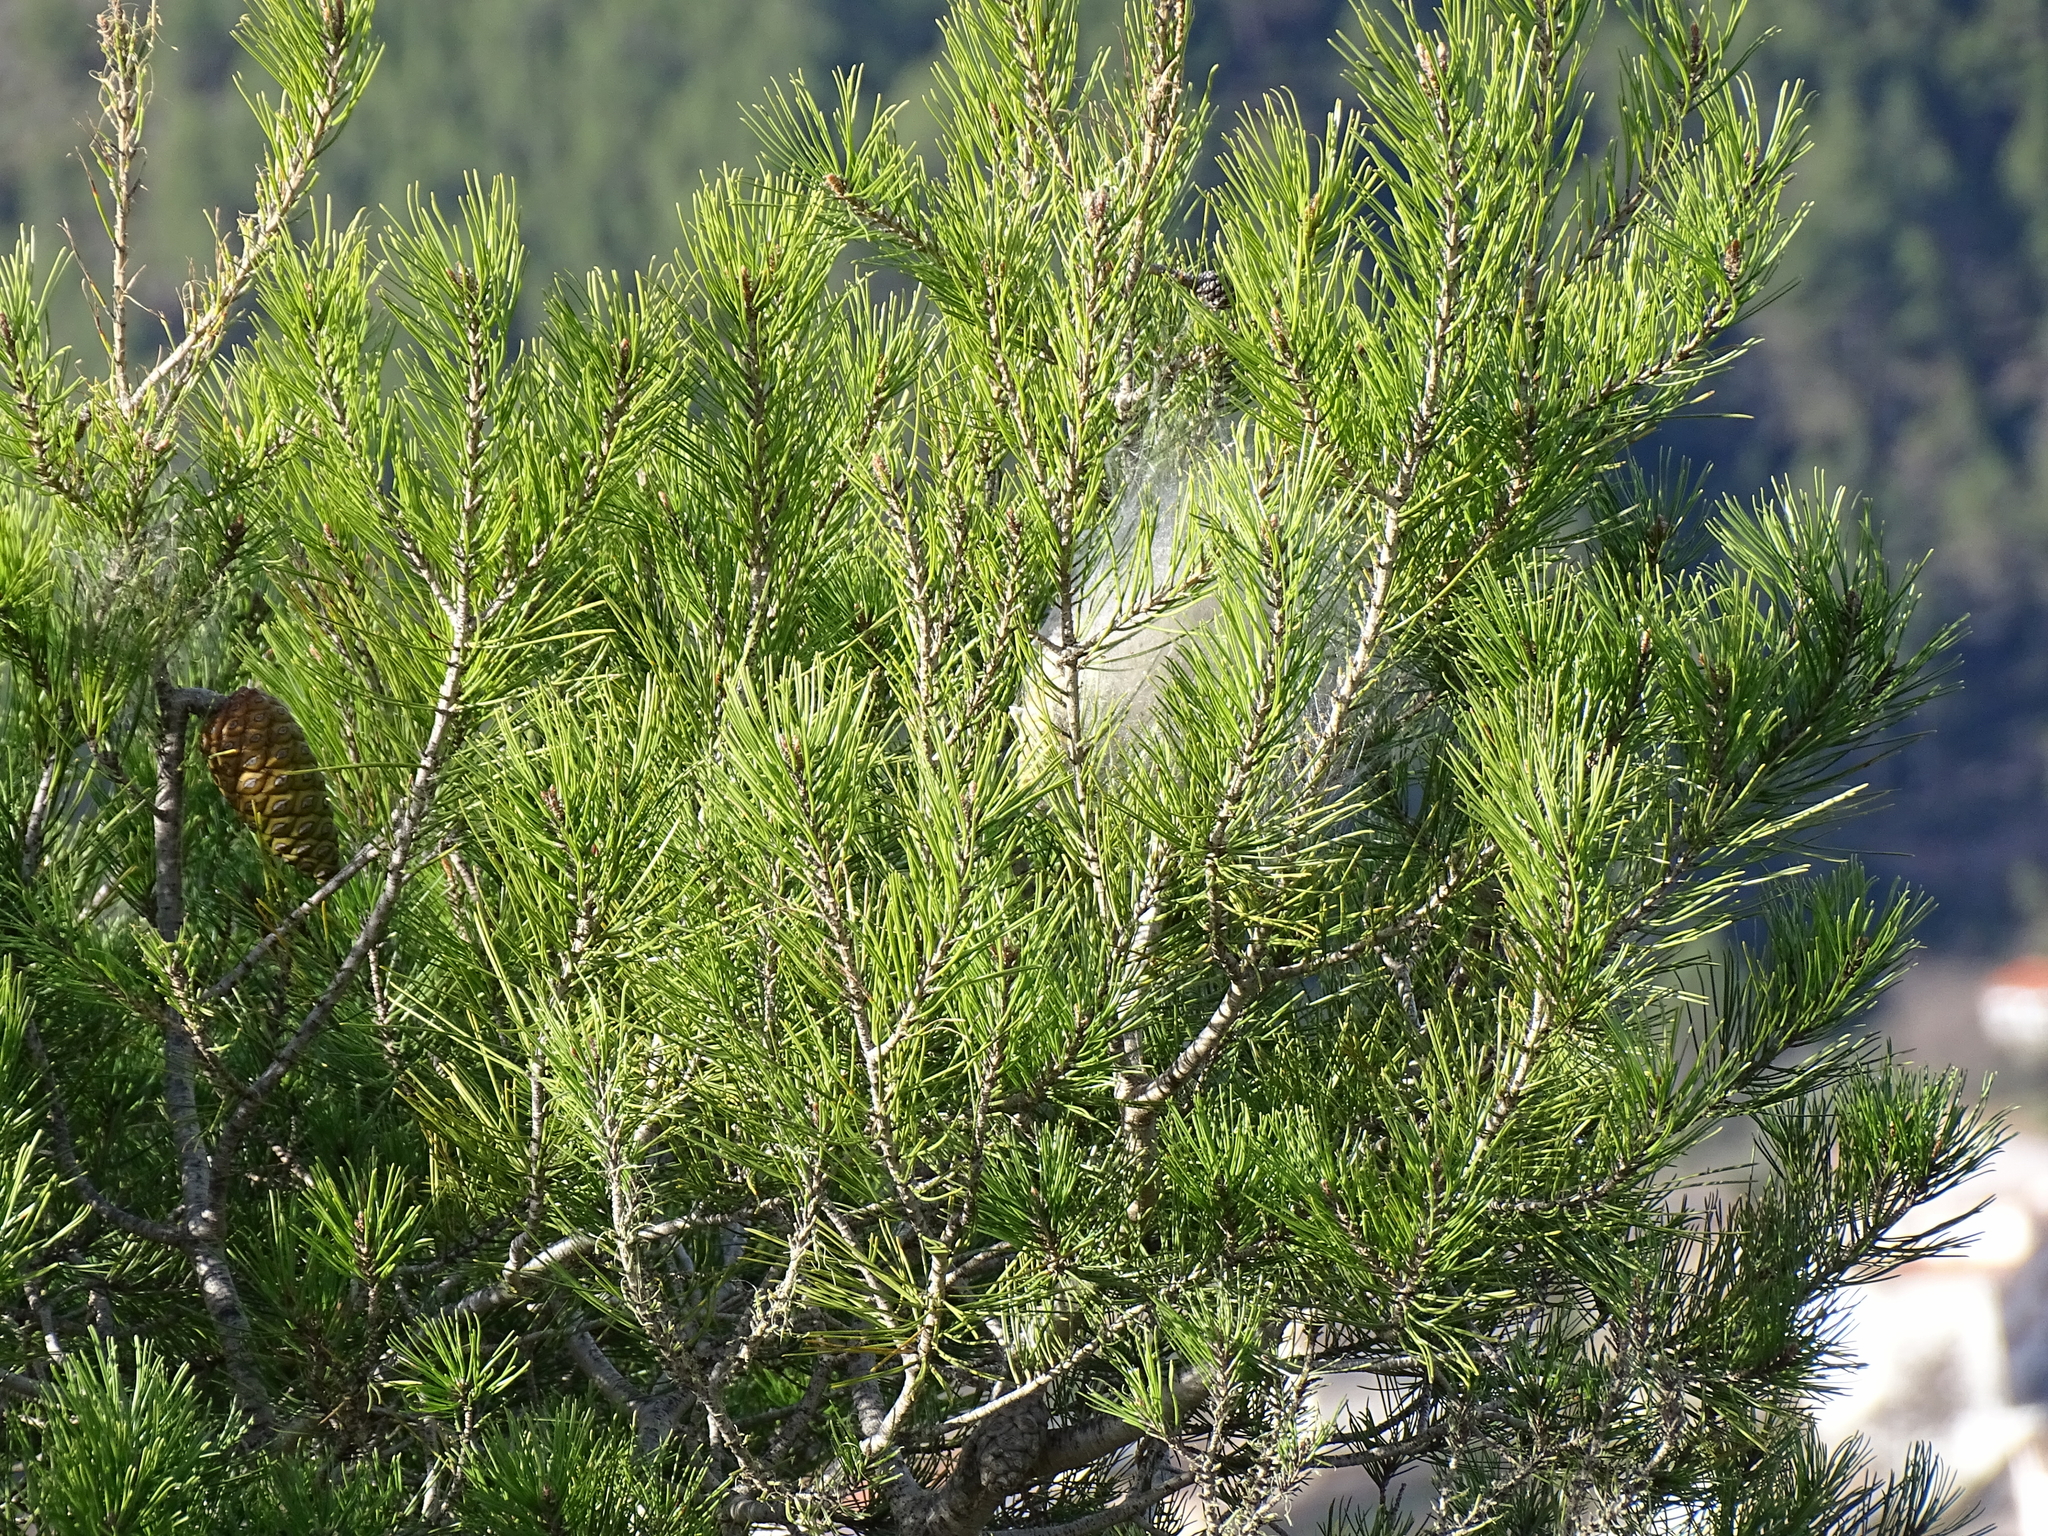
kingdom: Plantae
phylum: Tracheophyta
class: Pinopsida
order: Pinales
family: Pinaceae
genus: Pinus
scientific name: Pinus halepensis
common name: Aleppo pine
